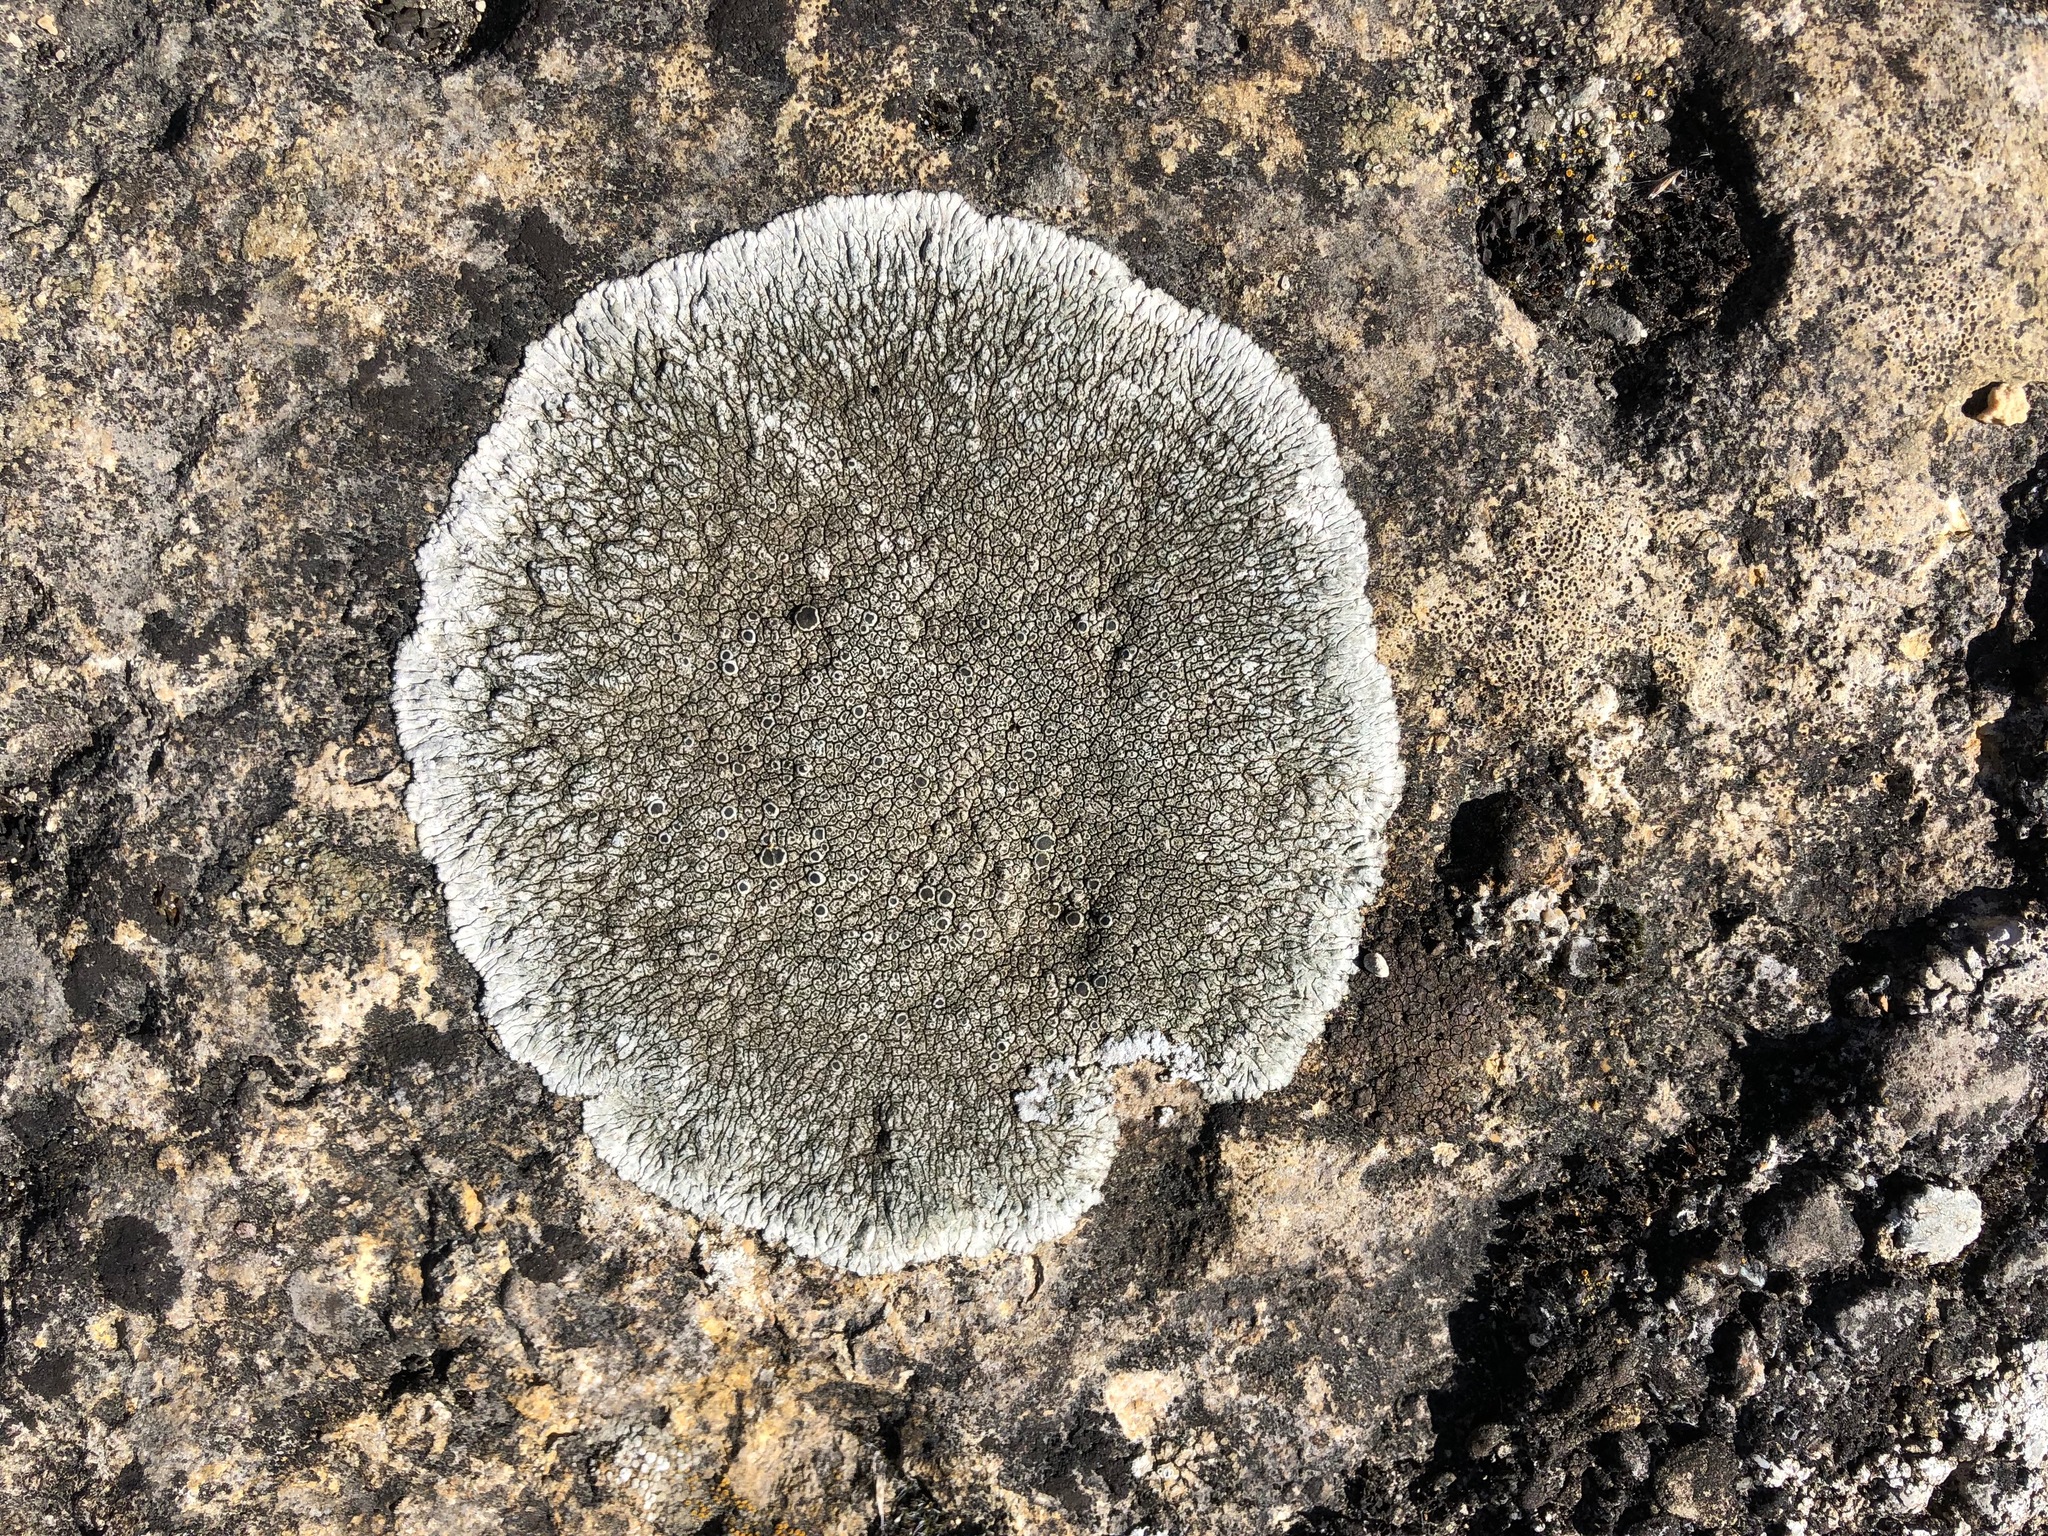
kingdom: Fungi
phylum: Ascomycota
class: Lecanoromycetes
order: Pertusariales
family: Megasporaceae
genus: Lobothallia
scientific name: Lobothallia radiosa
